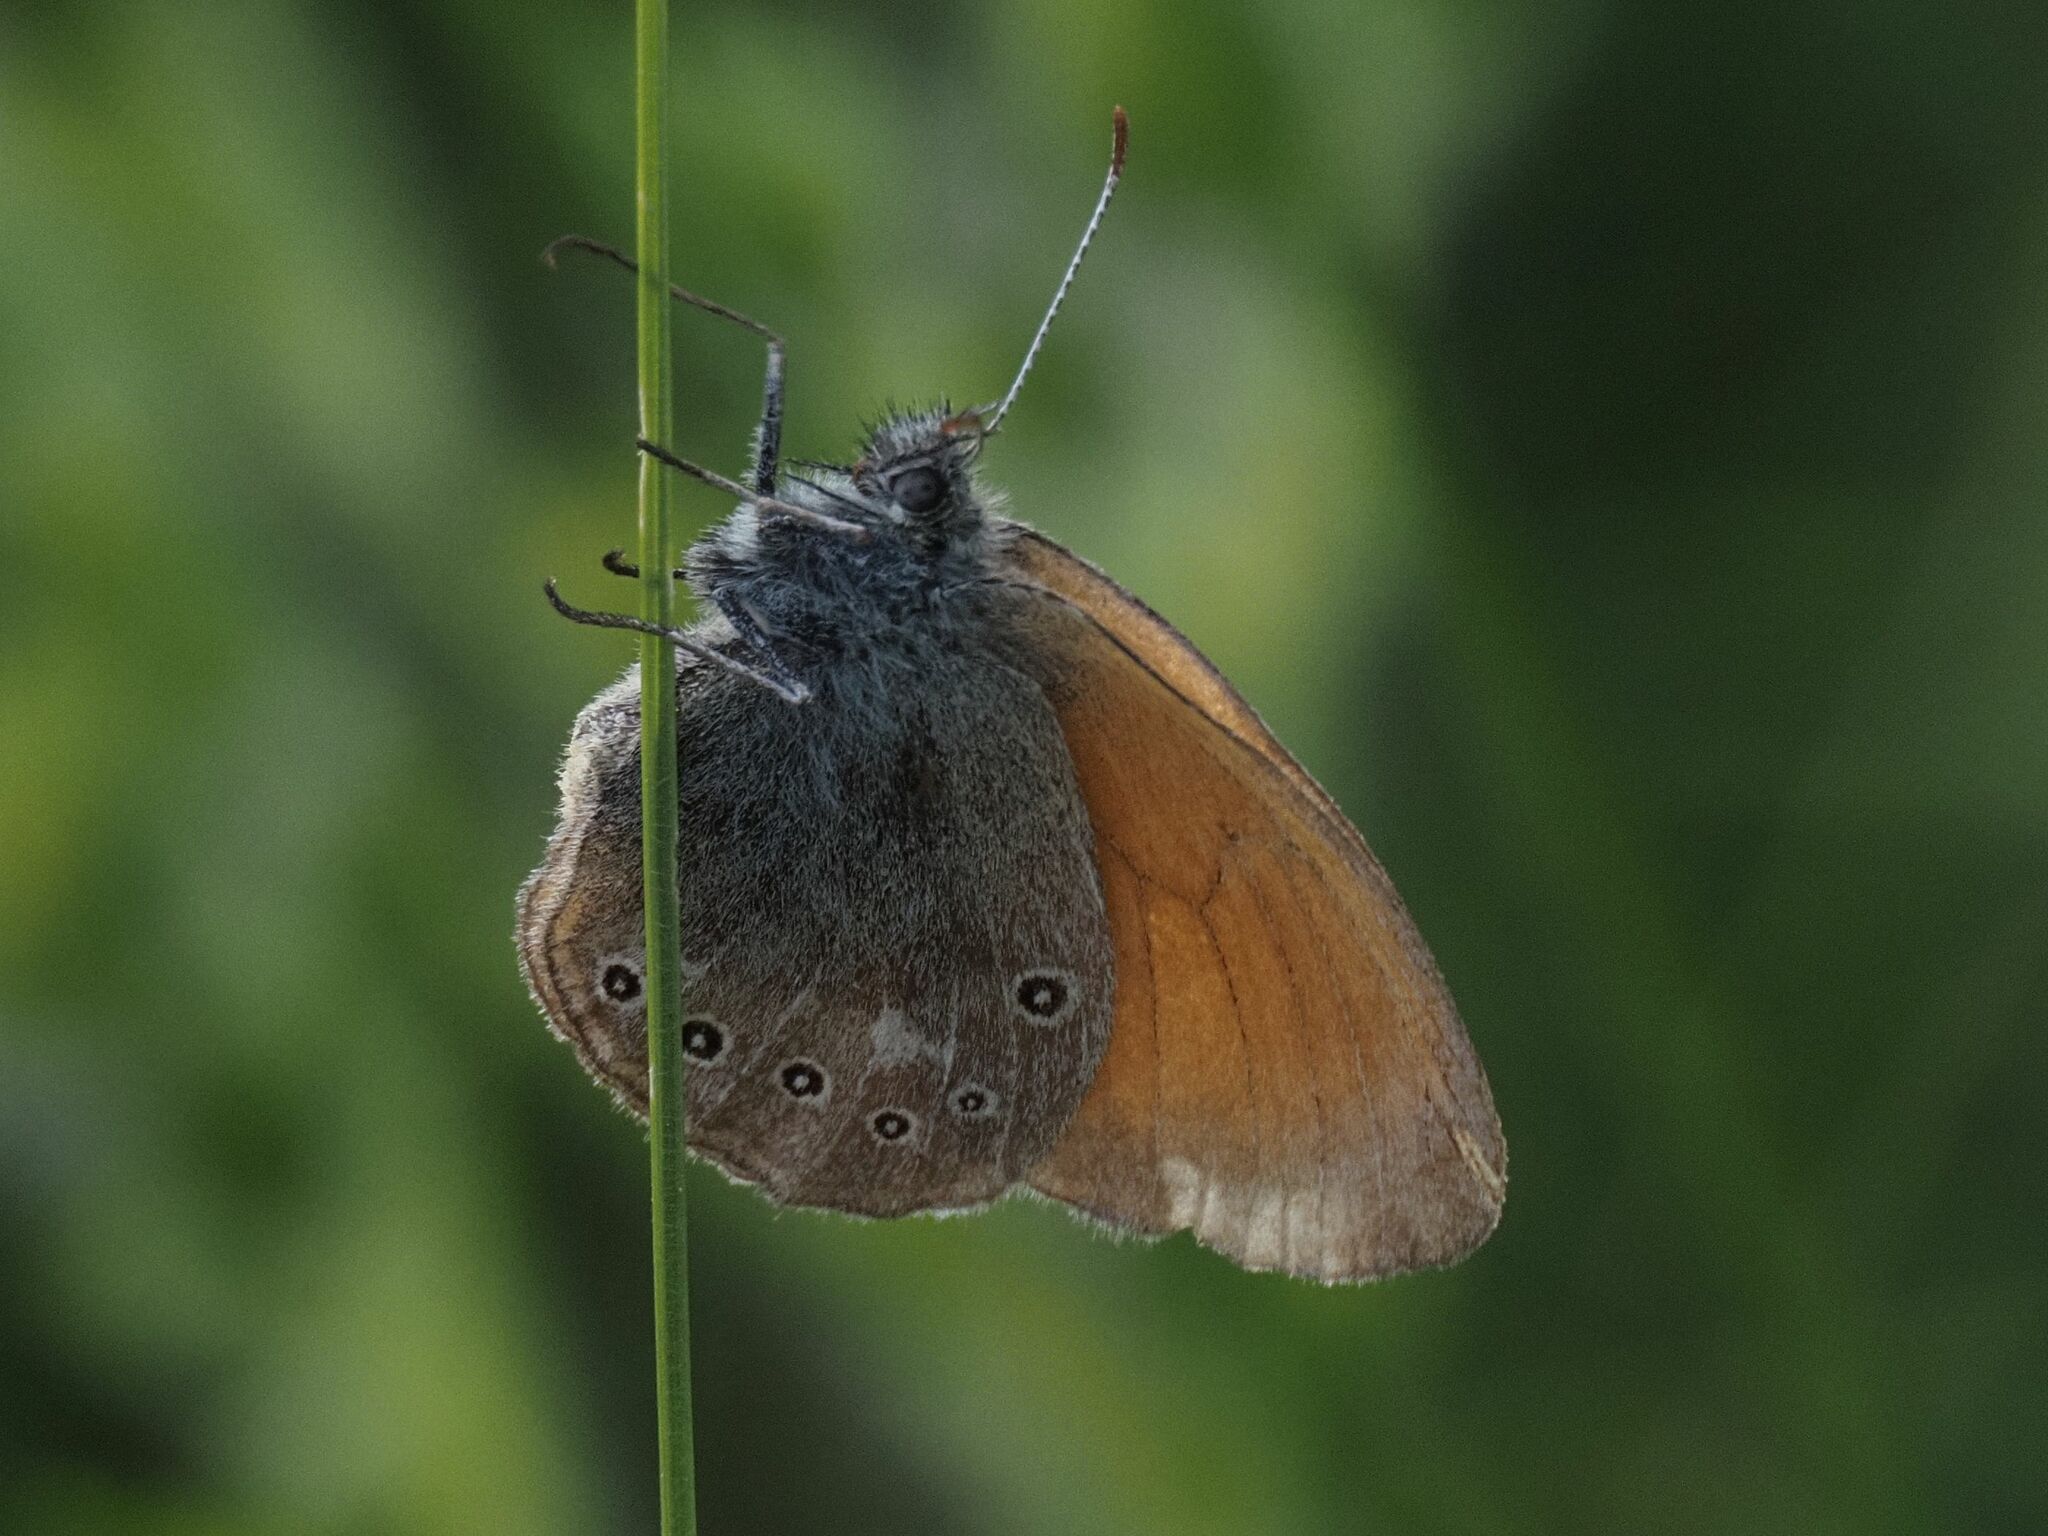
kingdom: Animalia
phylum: Arthropoda
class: Insecta
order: Lepidoptera
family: Nymphalidae
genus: Coenonympha
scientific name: Coenonympha iphis
